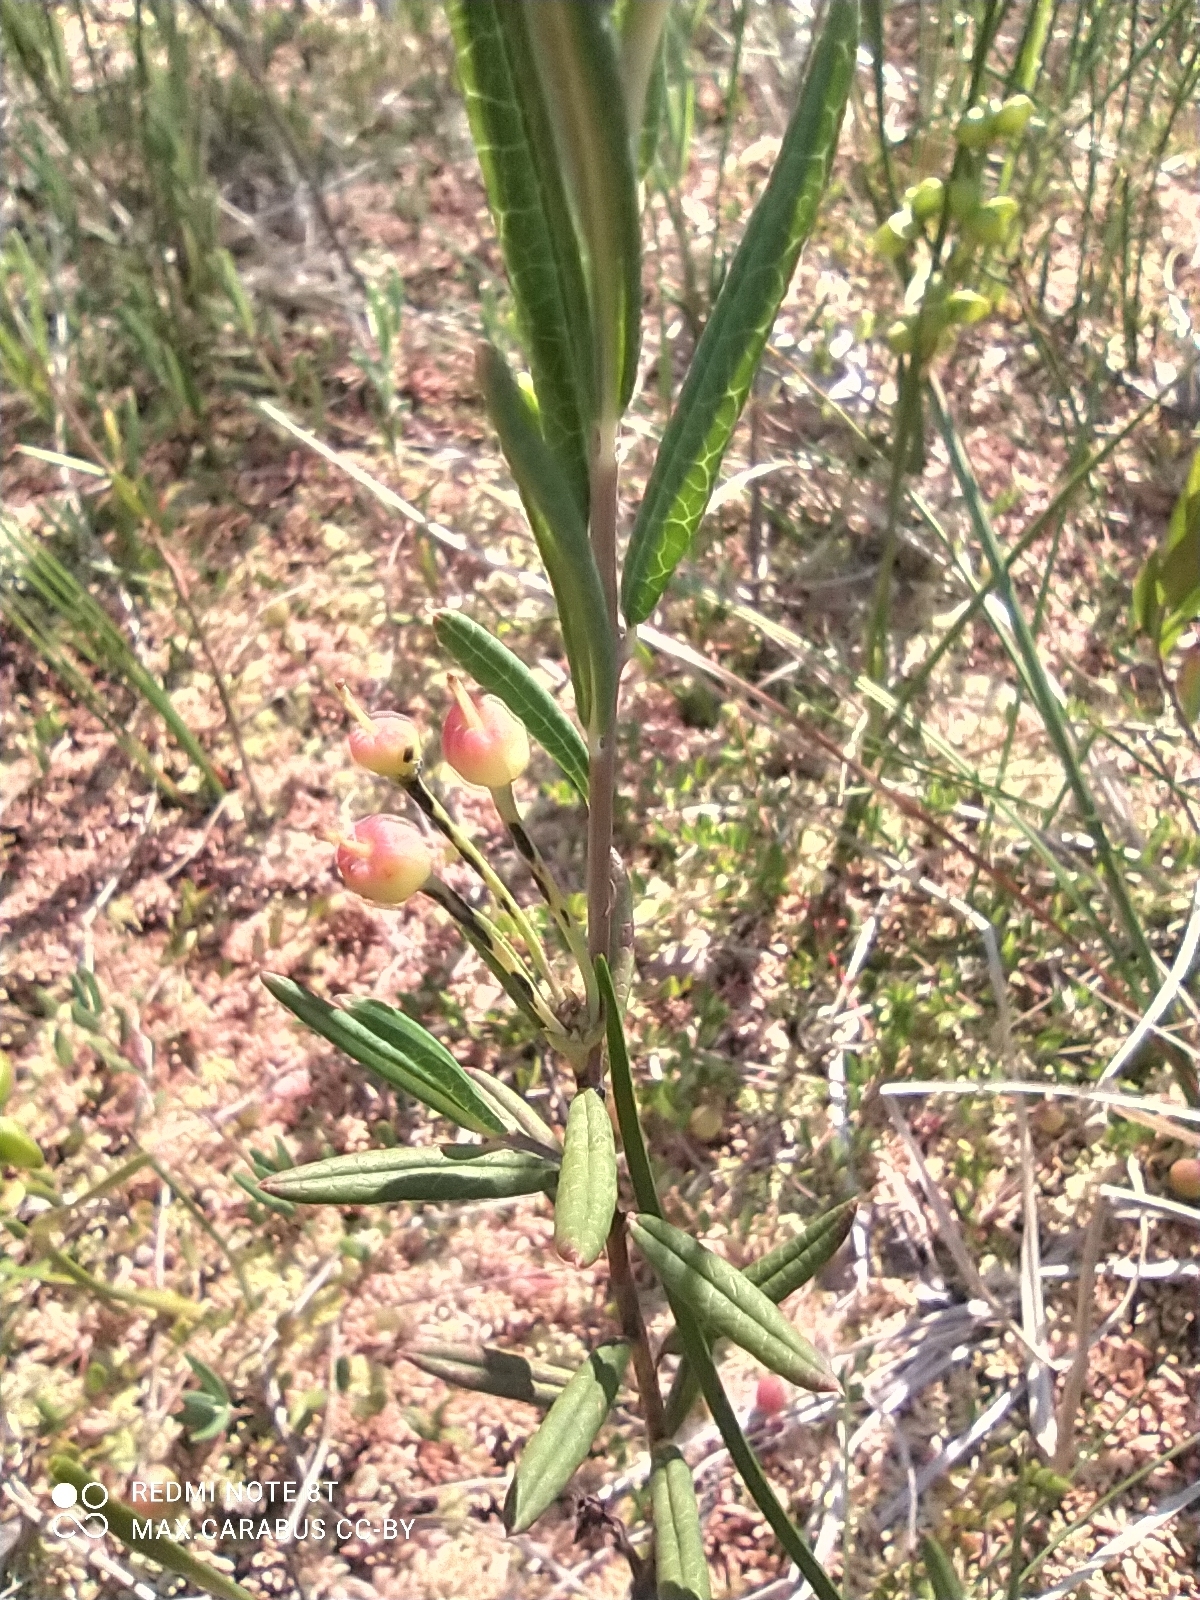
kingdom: Plantae
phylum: Tracheophyta
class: Magnoliopsida
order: Ericales
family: Ericaceae
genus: Andromeda
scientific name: Andromeda polifolia
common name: Bog-rosemary
